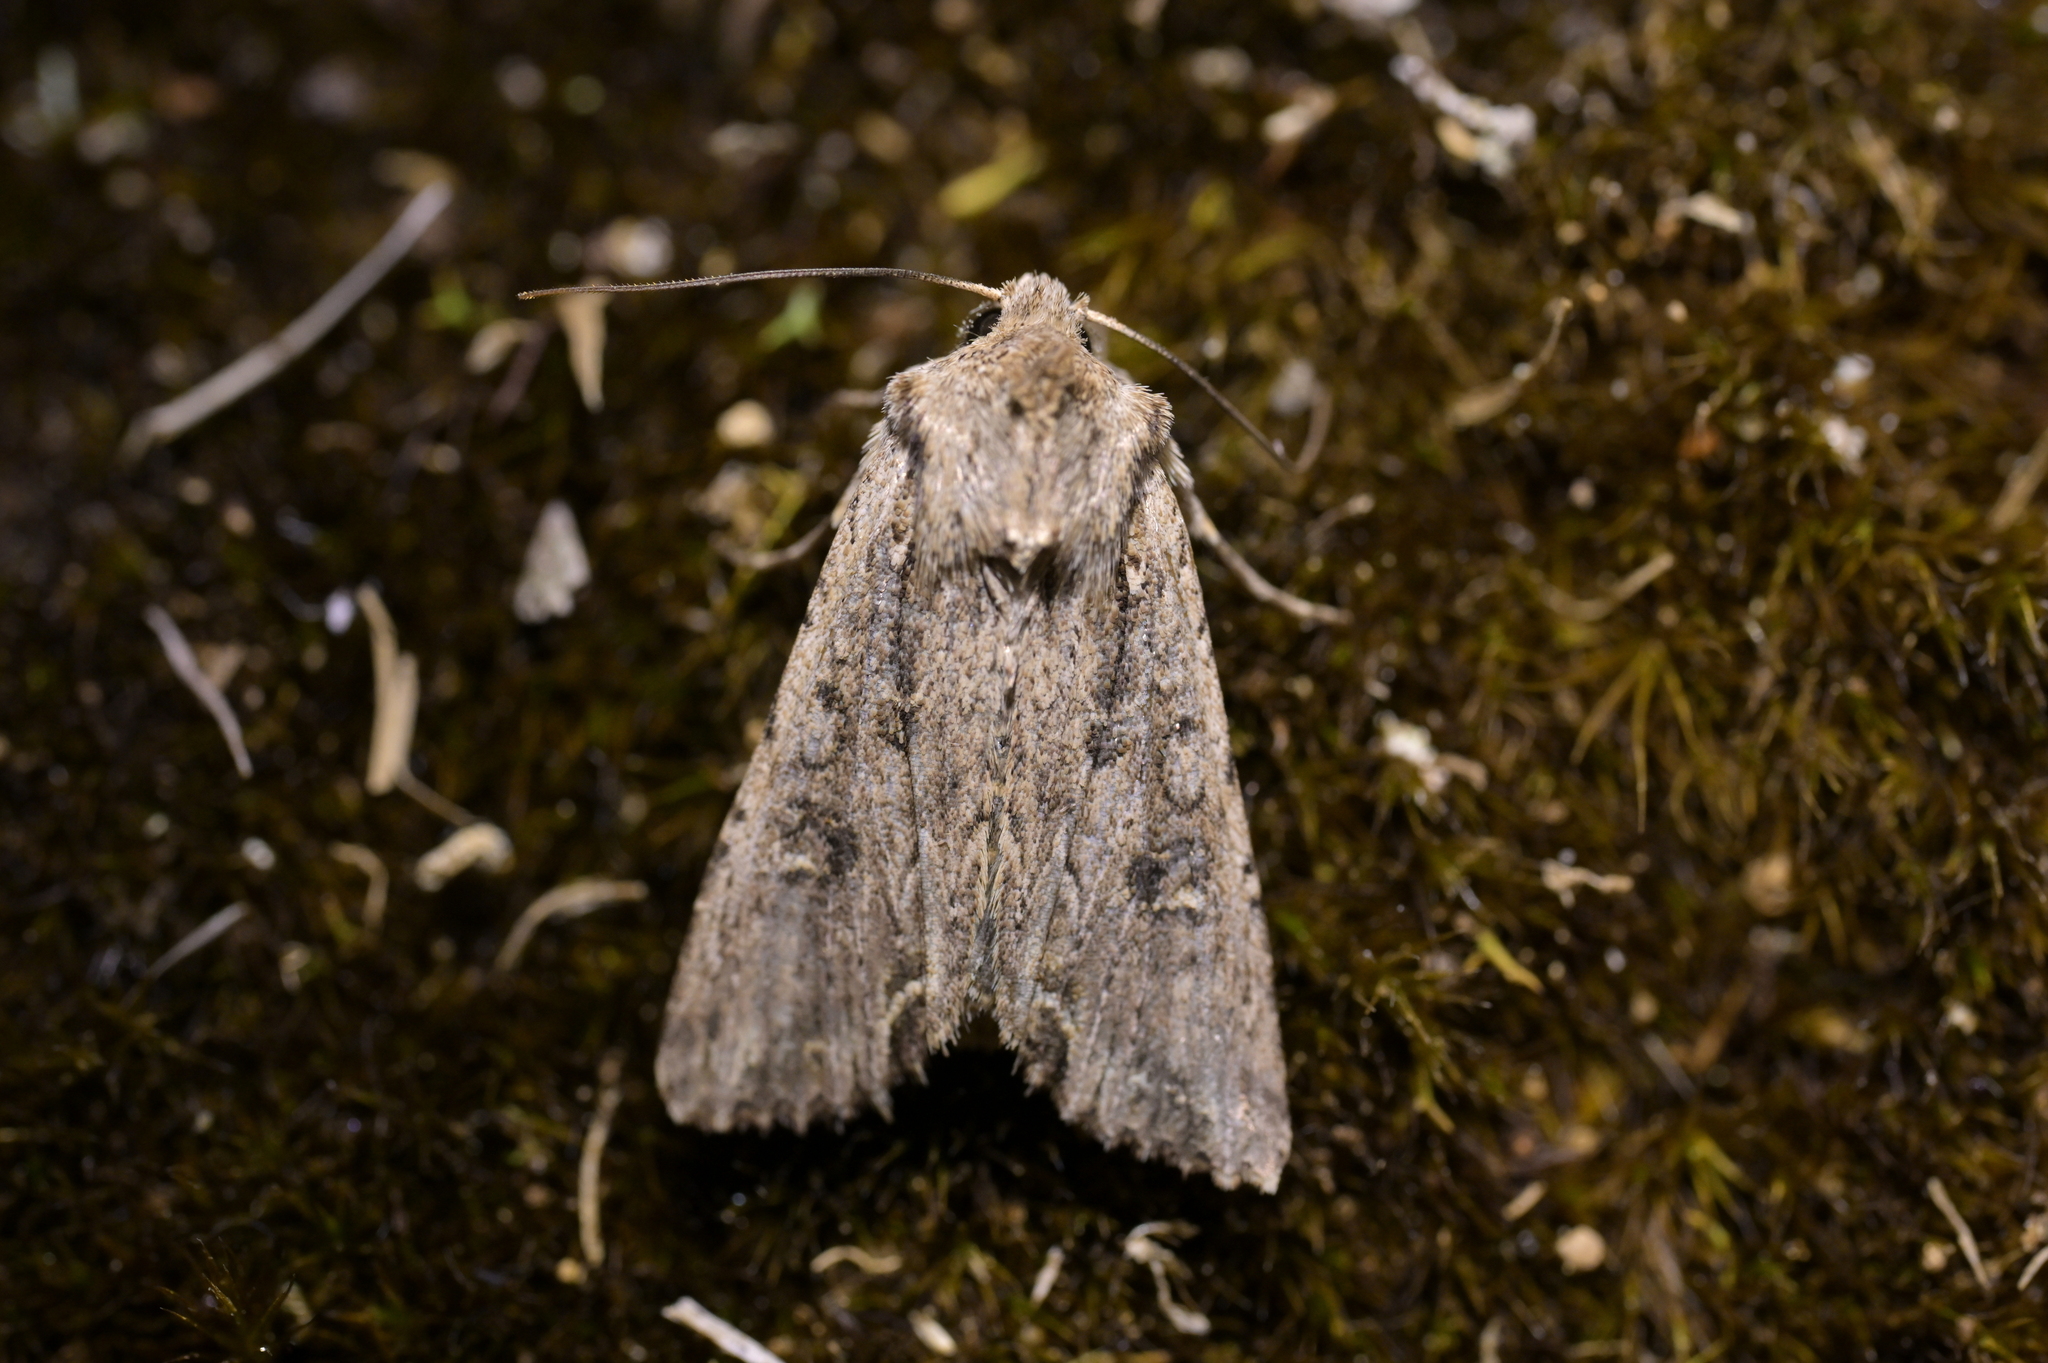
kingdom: Animalia
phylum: Arthropoda
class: Insecta
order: Lepidoptera
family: Noctuidae
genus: Ichneutica
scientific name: Ichneutica lignana
